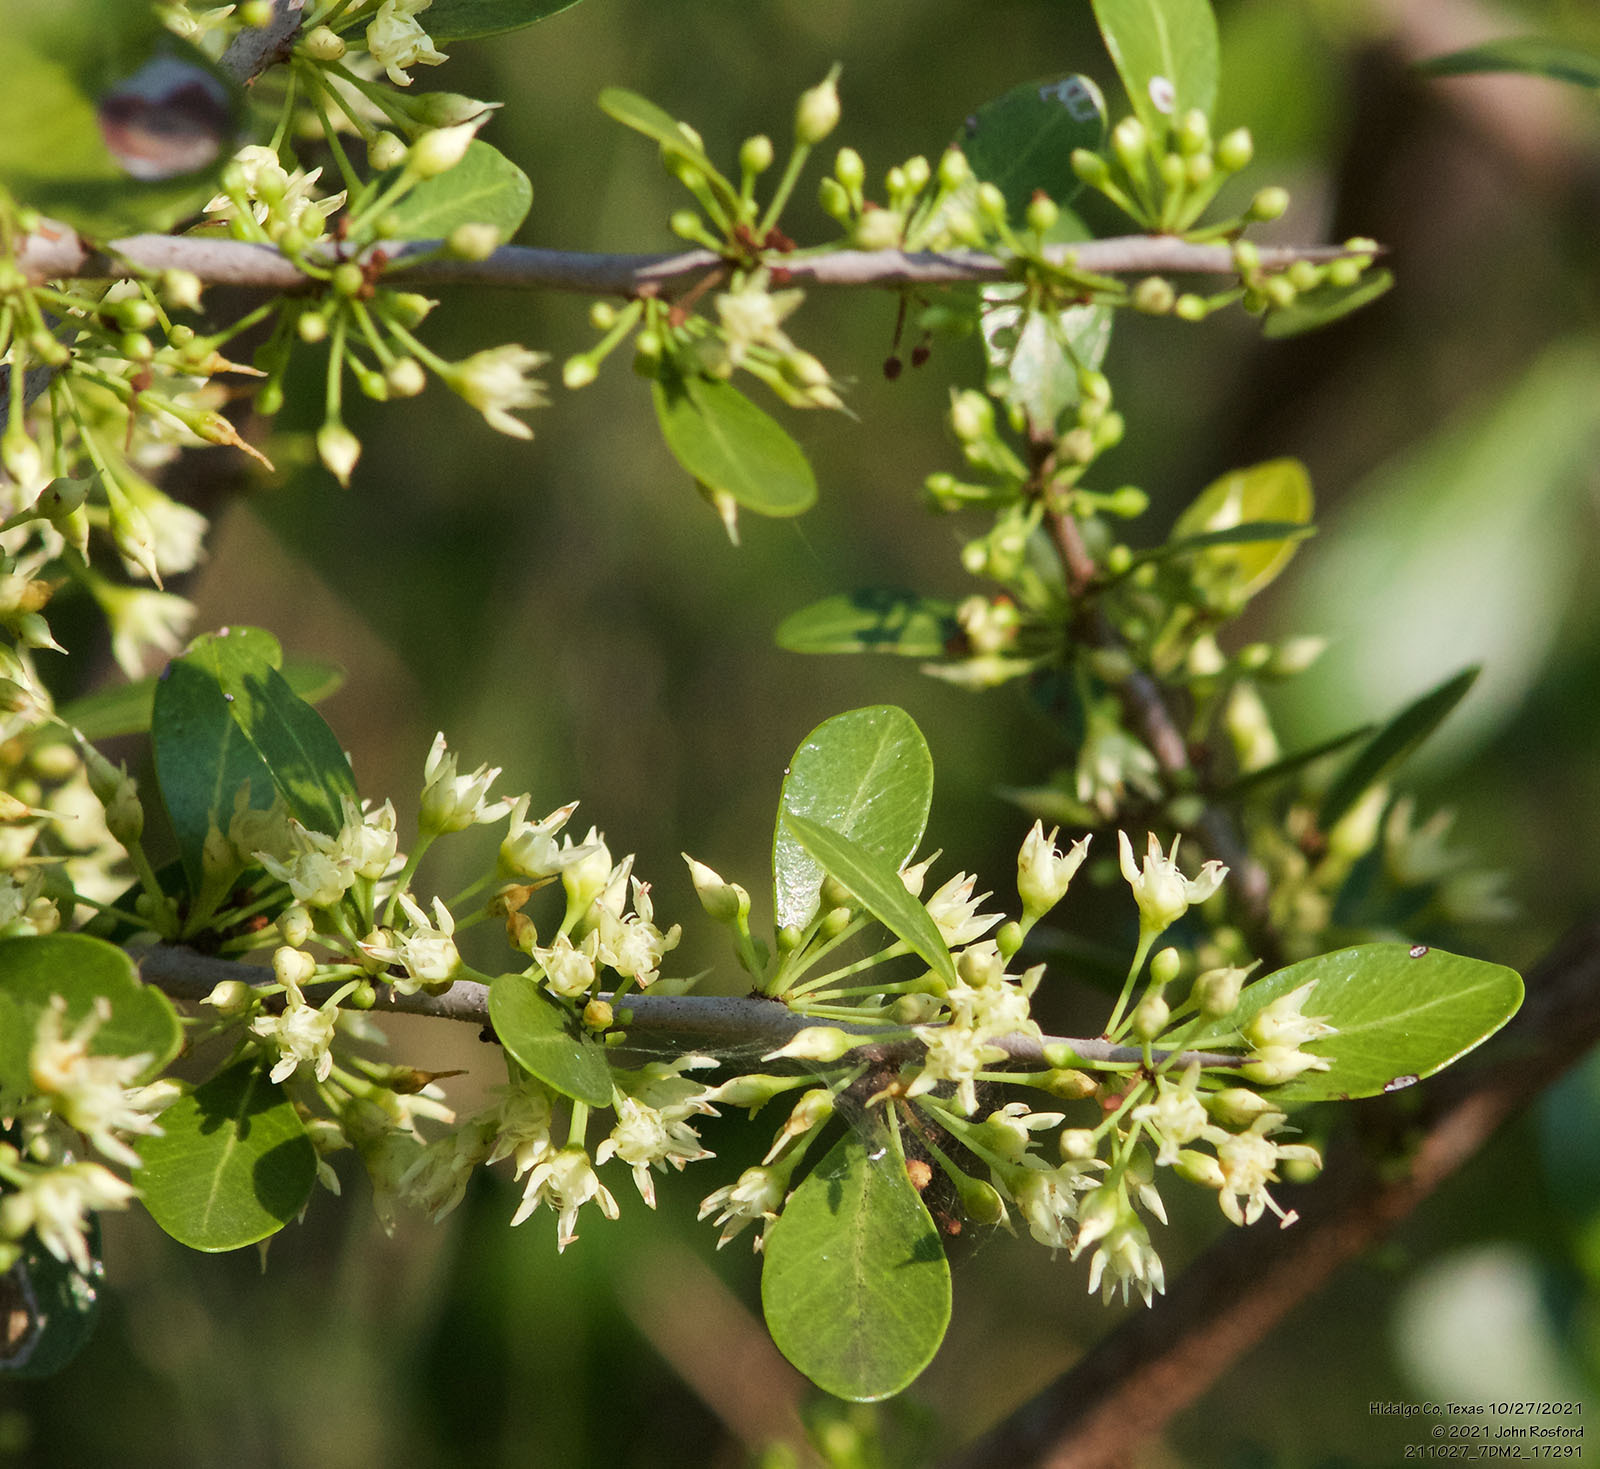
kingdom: Plantae
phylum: Tracheophyta
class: Magnoliopsida
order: Ericales
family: Sapotaceae
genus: Sideroxylon
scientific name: Sideroxylon celastrinum
